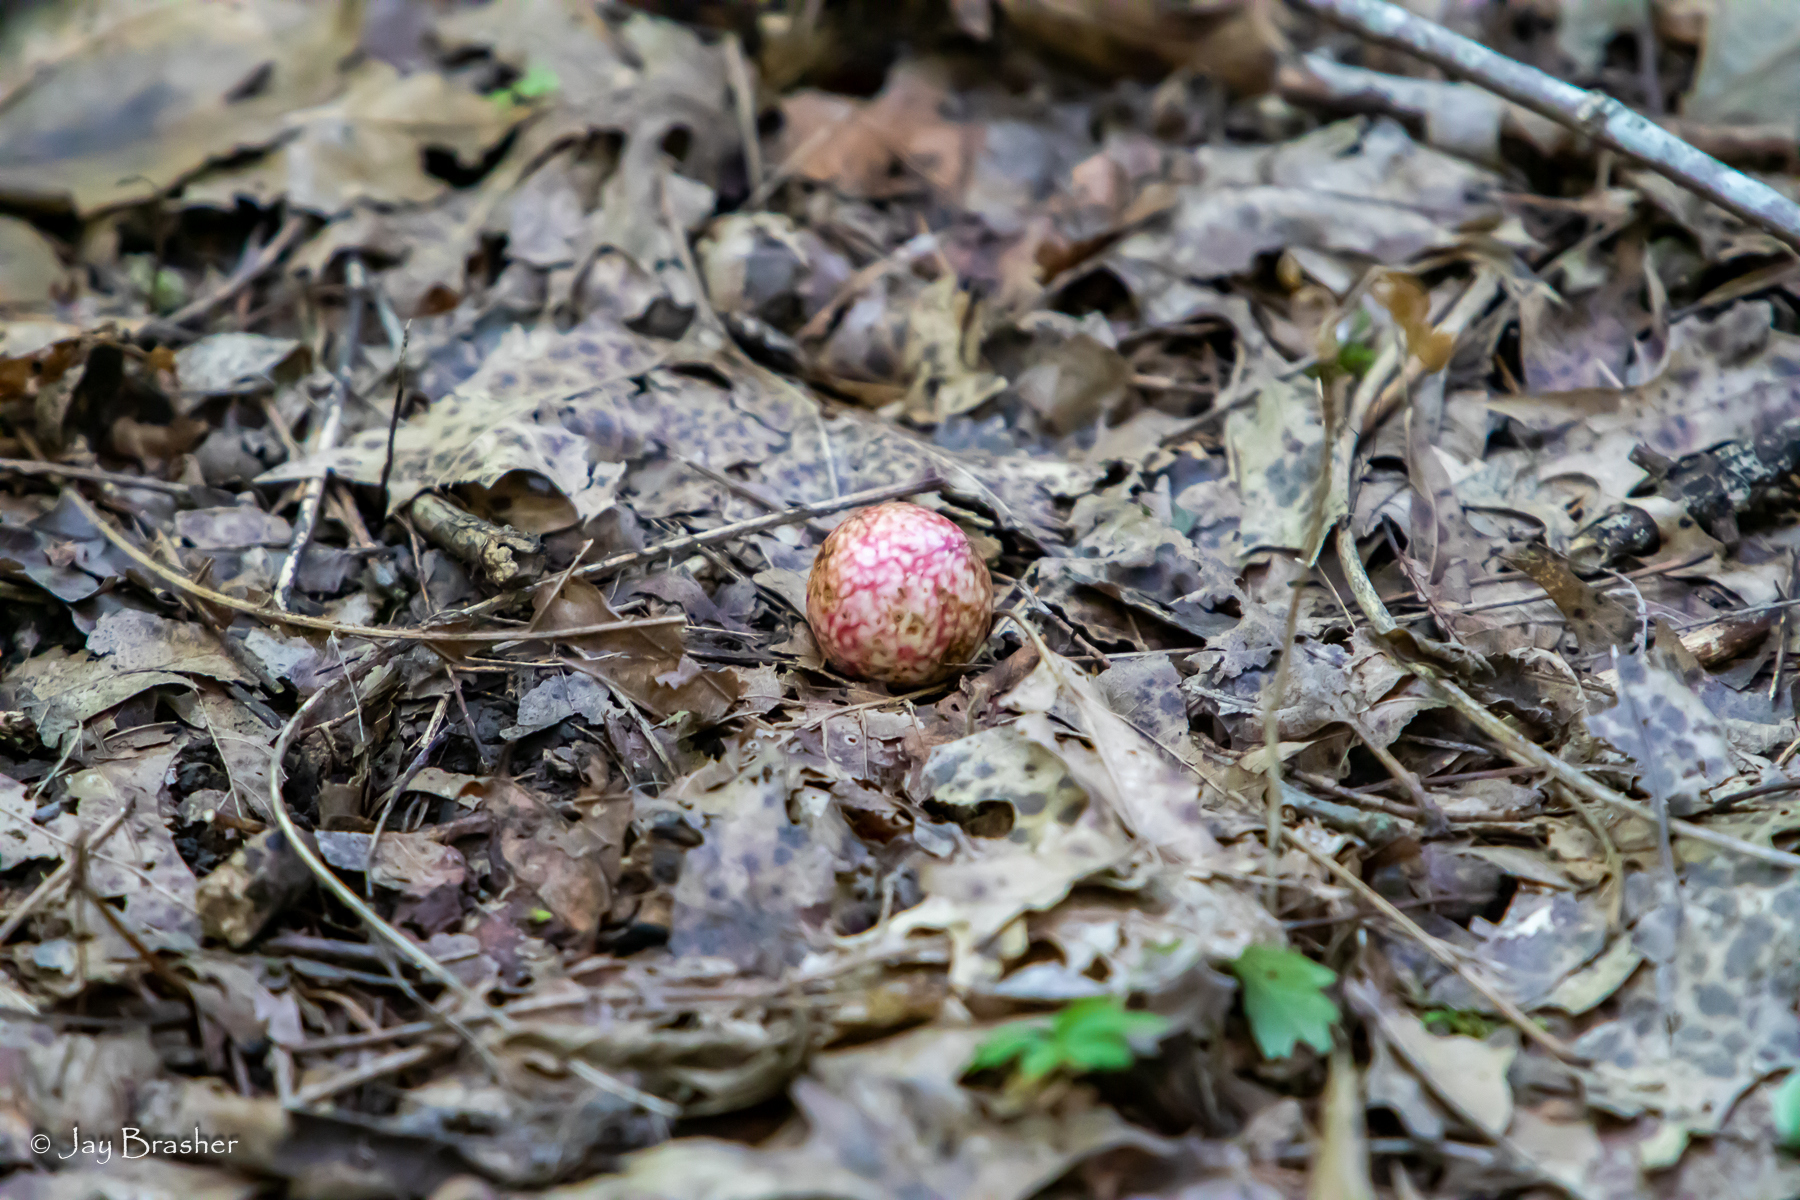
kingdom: Animalia
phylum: Arthropoda
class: Insecta
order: Hymenoptera
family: Cynipidae
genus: Amphibolips
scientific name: Amphibolips
